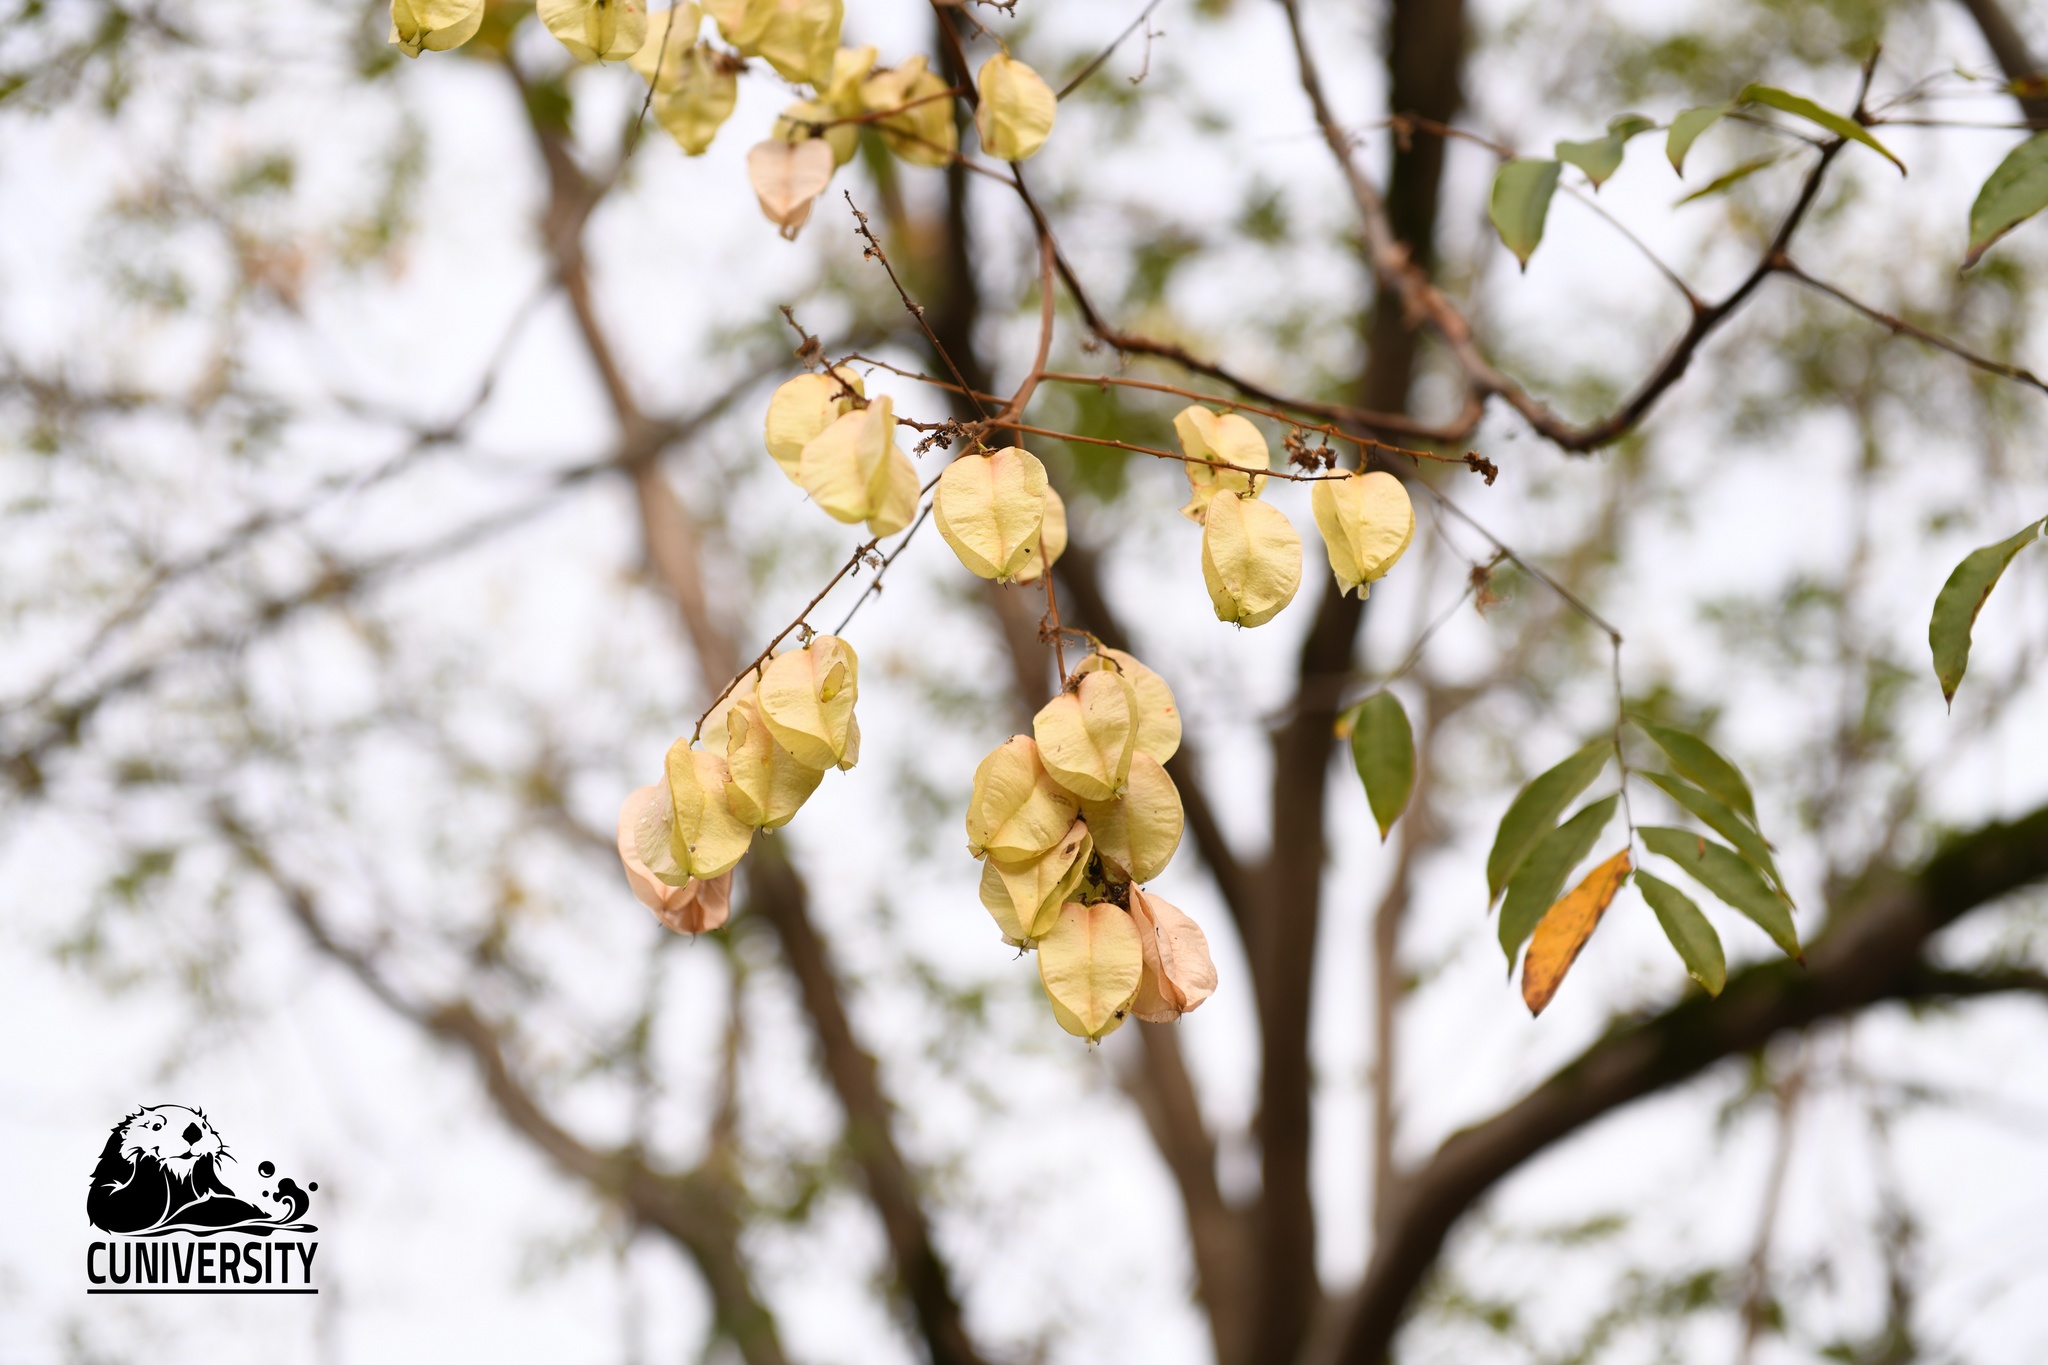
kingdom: Plantae
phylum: Tracheophyta
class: Magnoliopsida
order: Sapindales
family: Sapindaceae
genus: Koelreuteria
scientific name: Koelreuteria paniculata
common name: Pride-of-india
